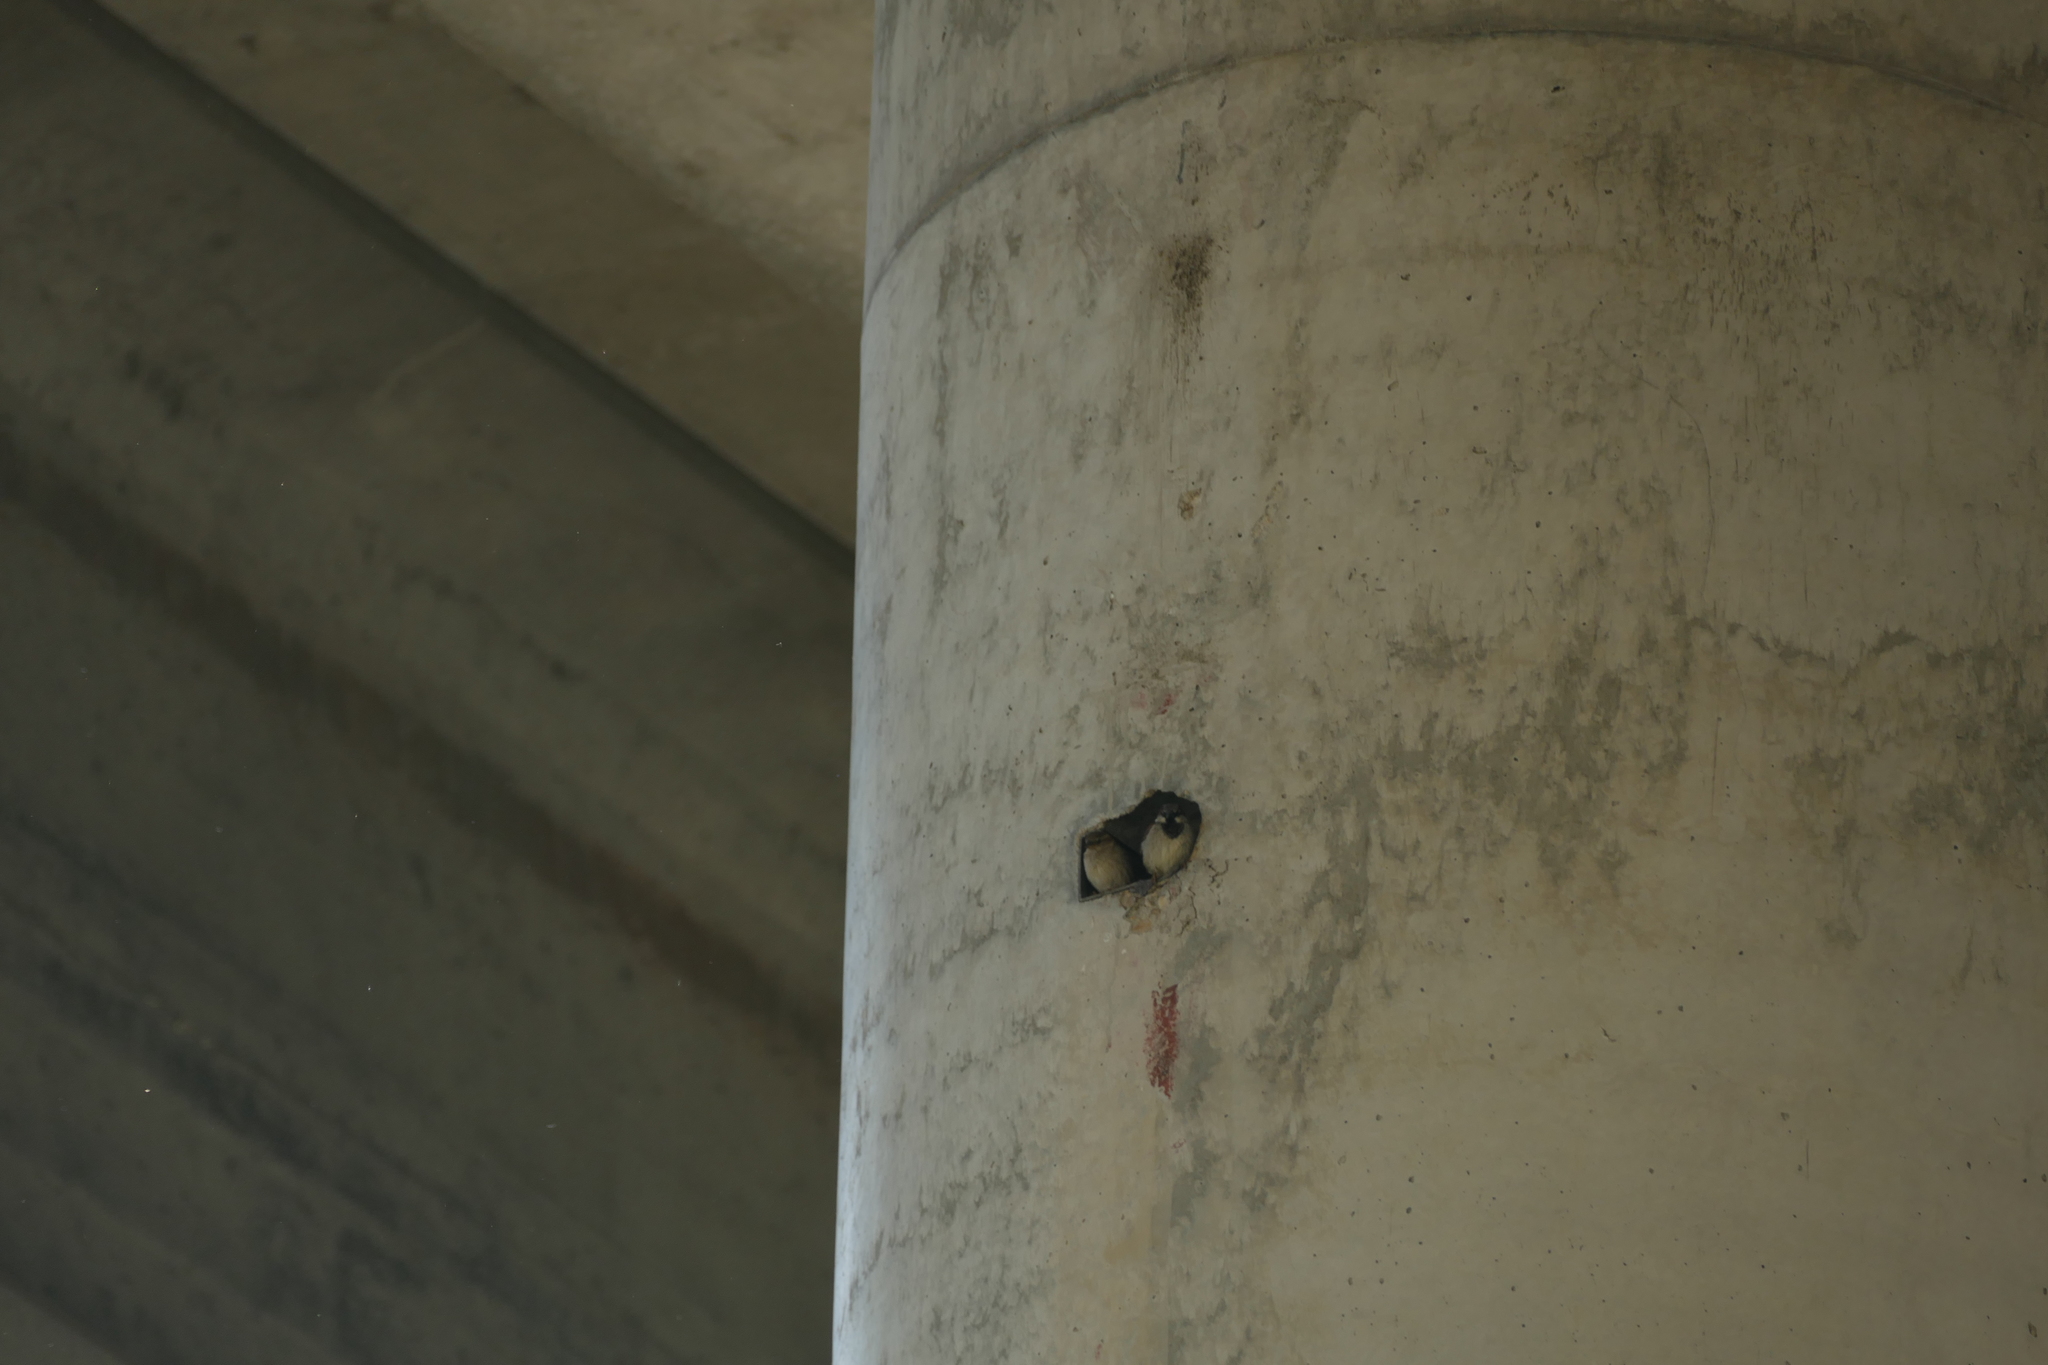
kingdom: Animalia
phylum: Chordata
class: Aves
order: Passeriformes
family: Passeridae
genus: Passer
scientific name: Passer domesticus
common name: House sparrow
